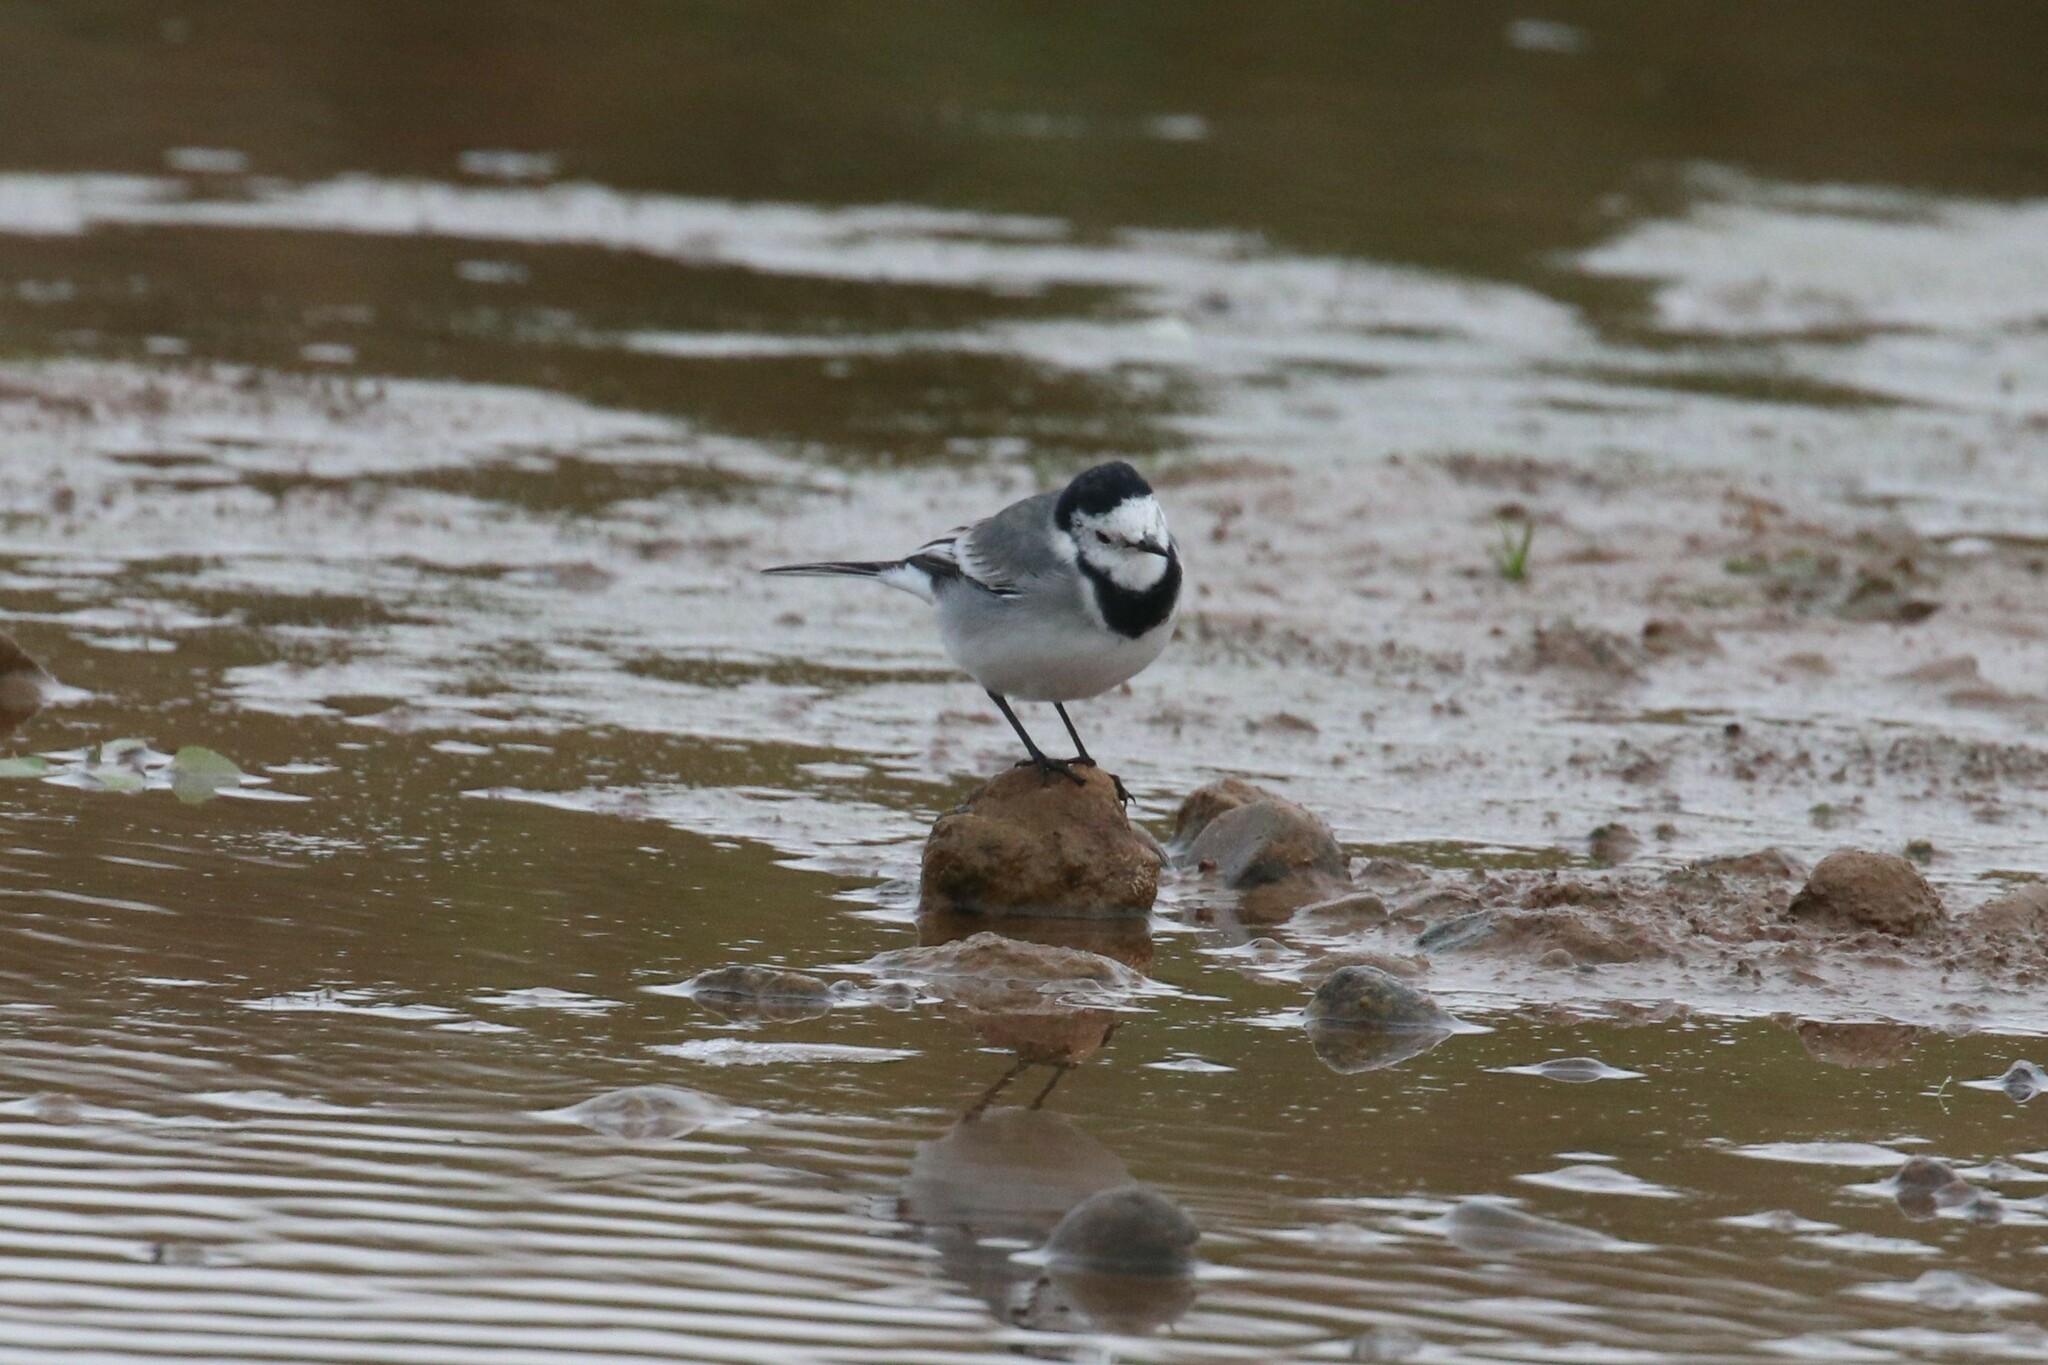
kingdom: Animalia
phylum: Chordata
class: Aves
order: Passeriformes
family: Motacillidae
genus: Motacilla
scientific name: Motacilla alba
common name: White wagtail
